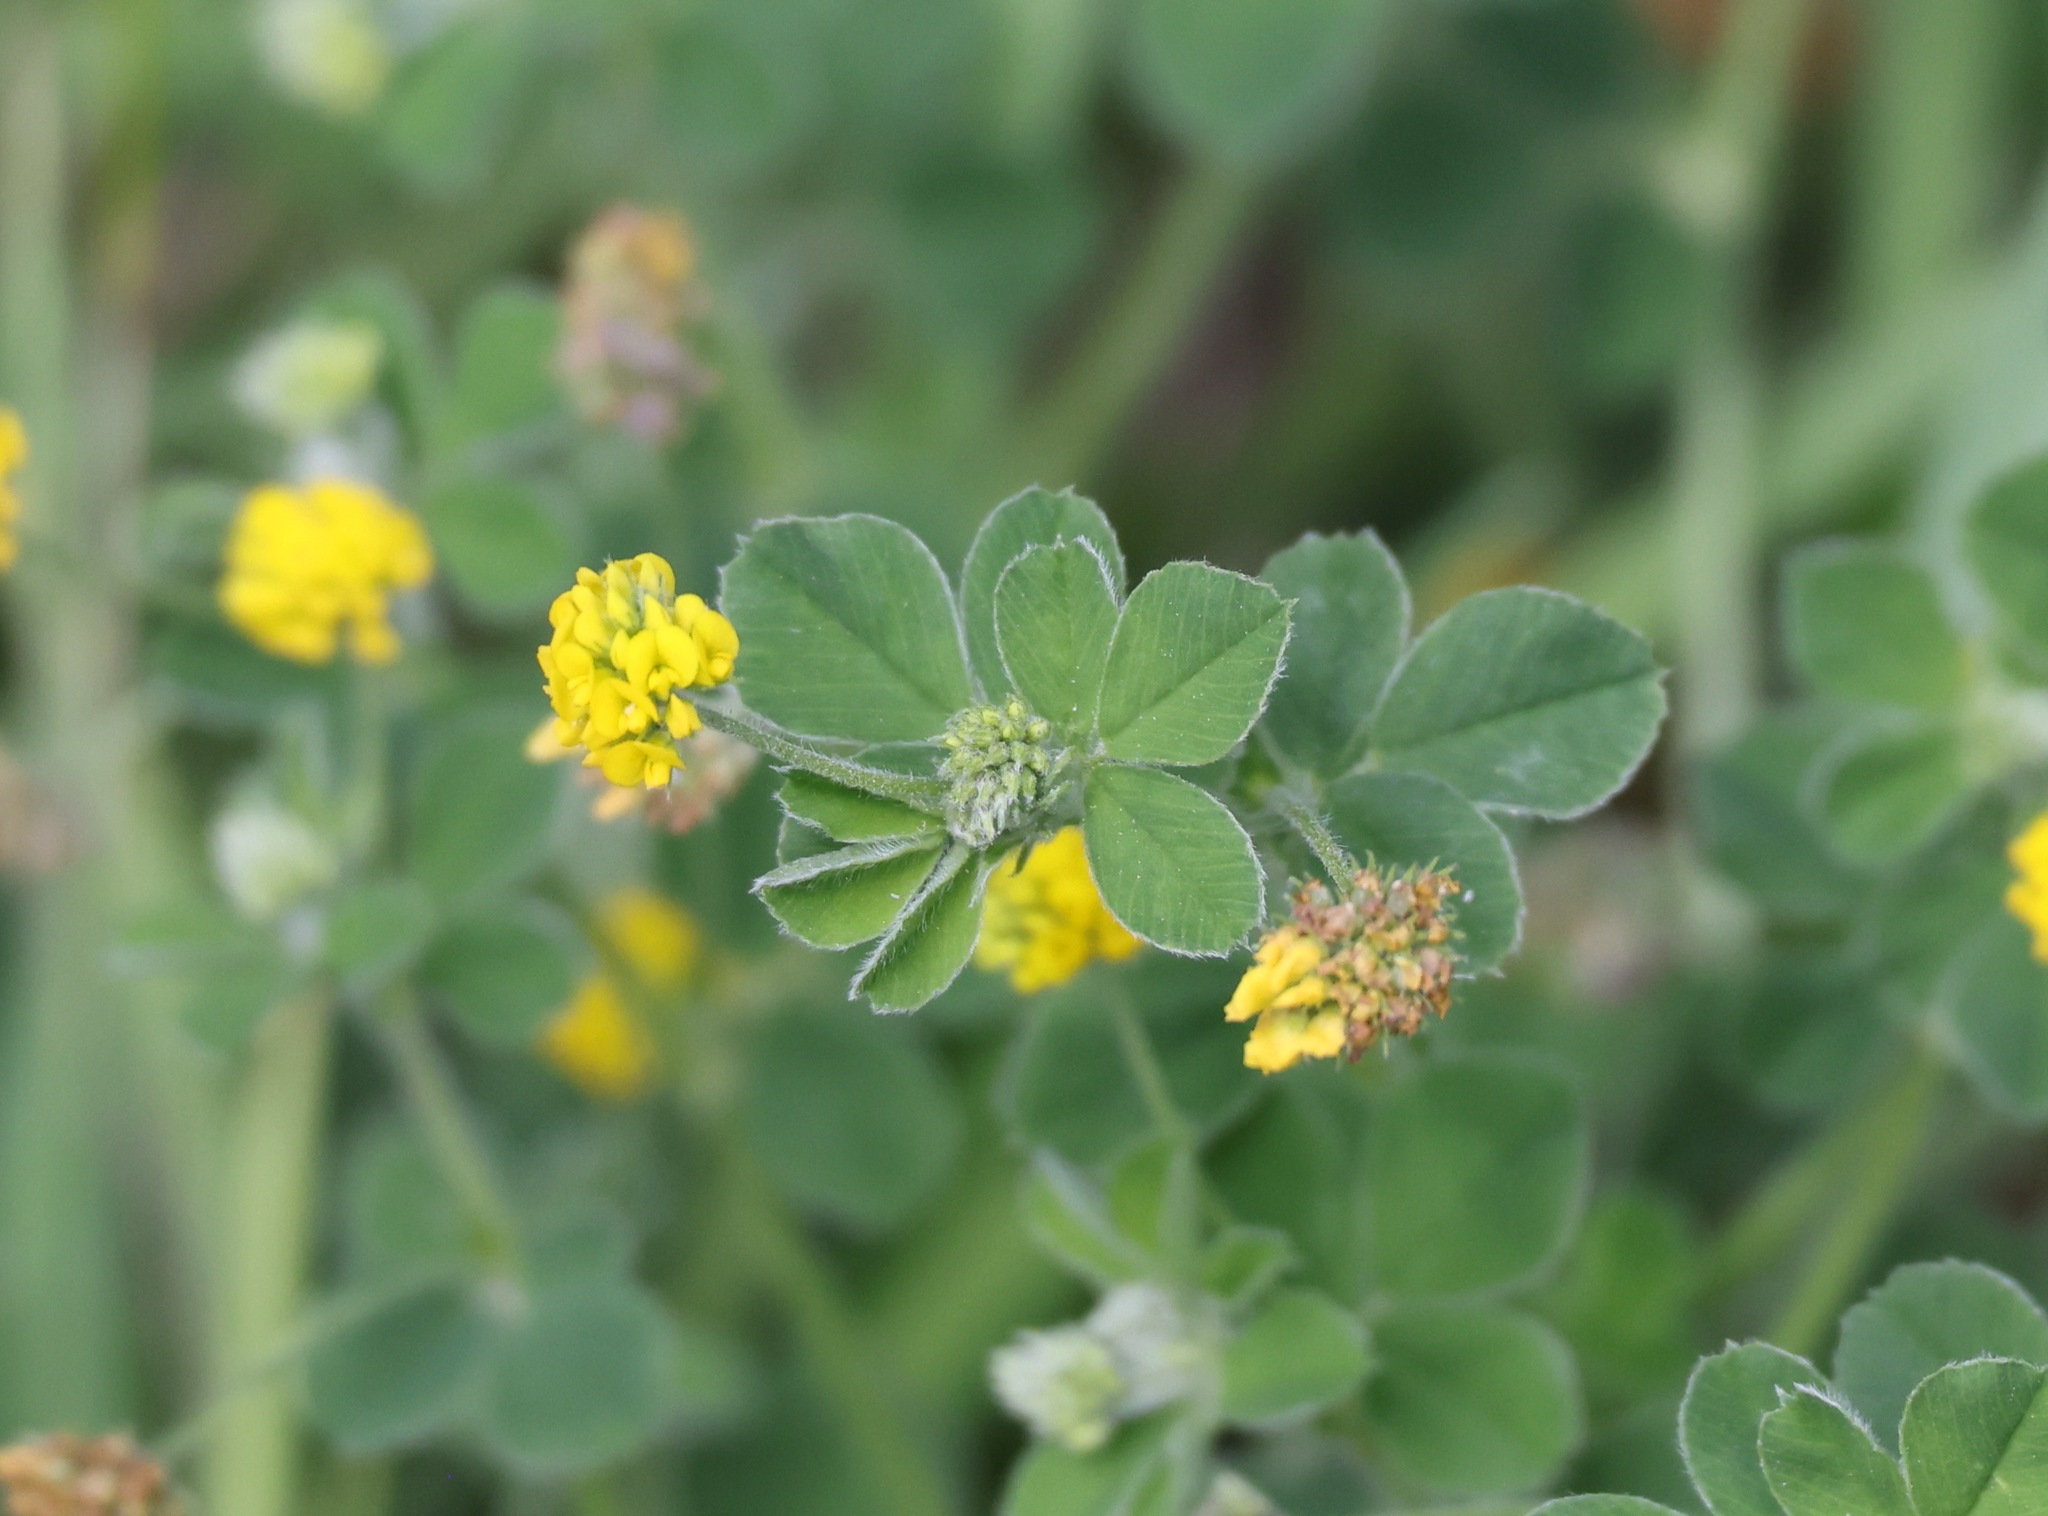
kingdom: Plantae
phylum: Tracheophyta
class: Magnoliopsida
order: Fabales
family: Fabaceae
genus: Medicago
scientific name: Medicago lupulina
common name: Black medick
